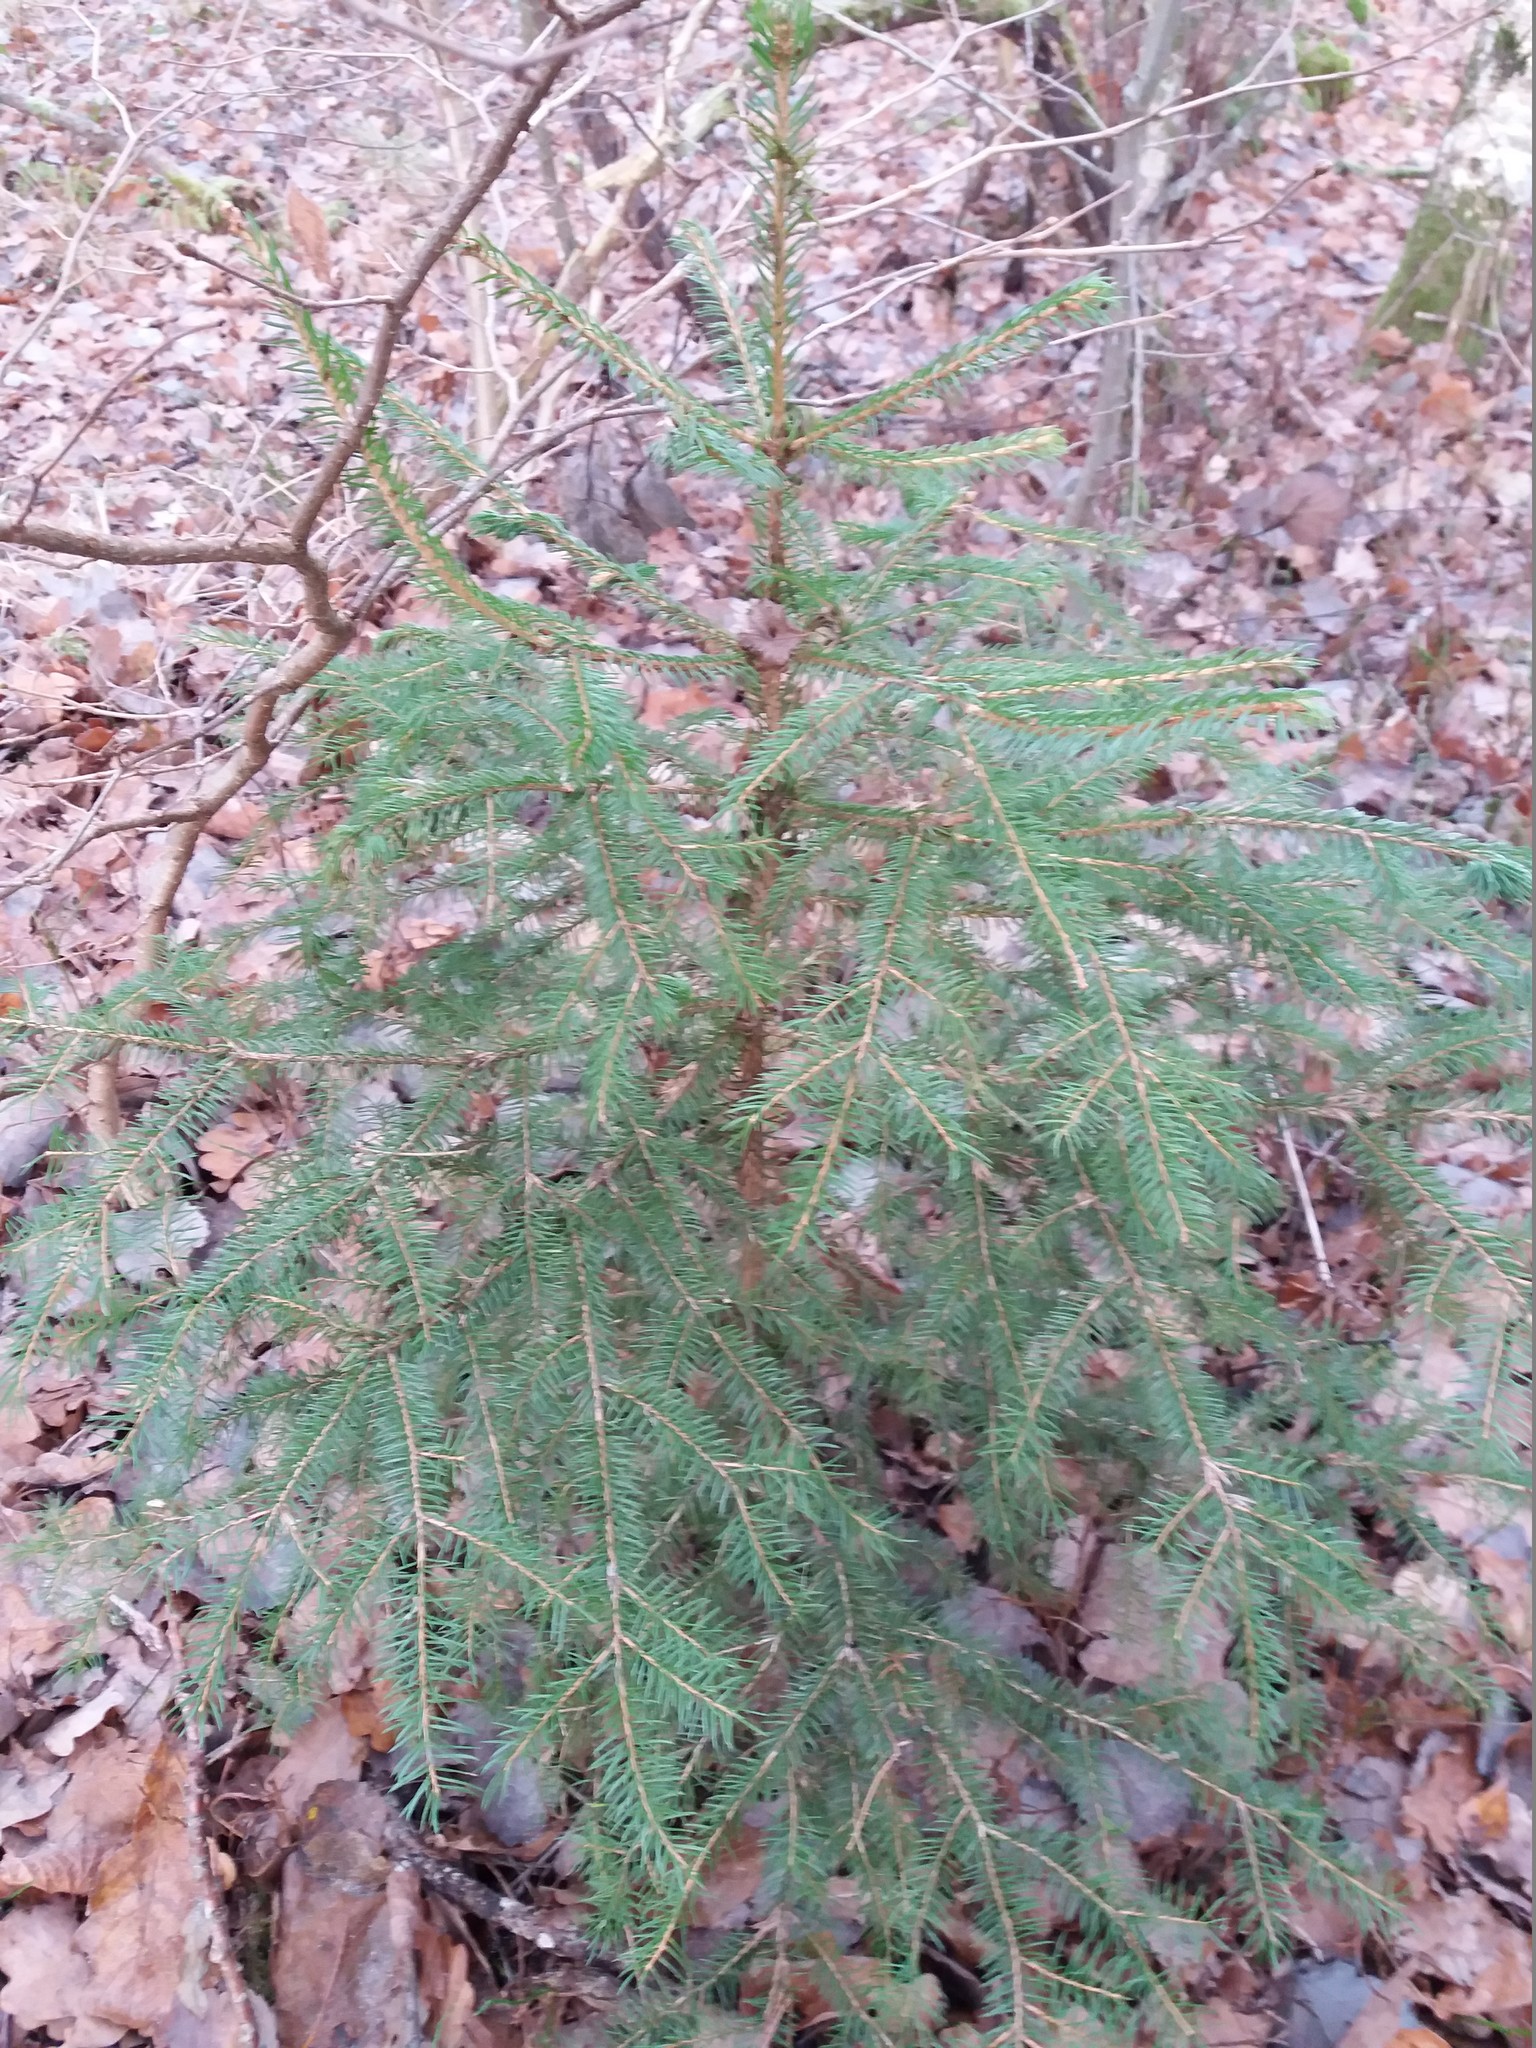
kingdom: Plantae
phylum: Tracheophyta
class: Pinopsida
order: Pinales
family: Pinaceae
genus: Picea
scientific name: Picea abies
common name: Norway spruce
